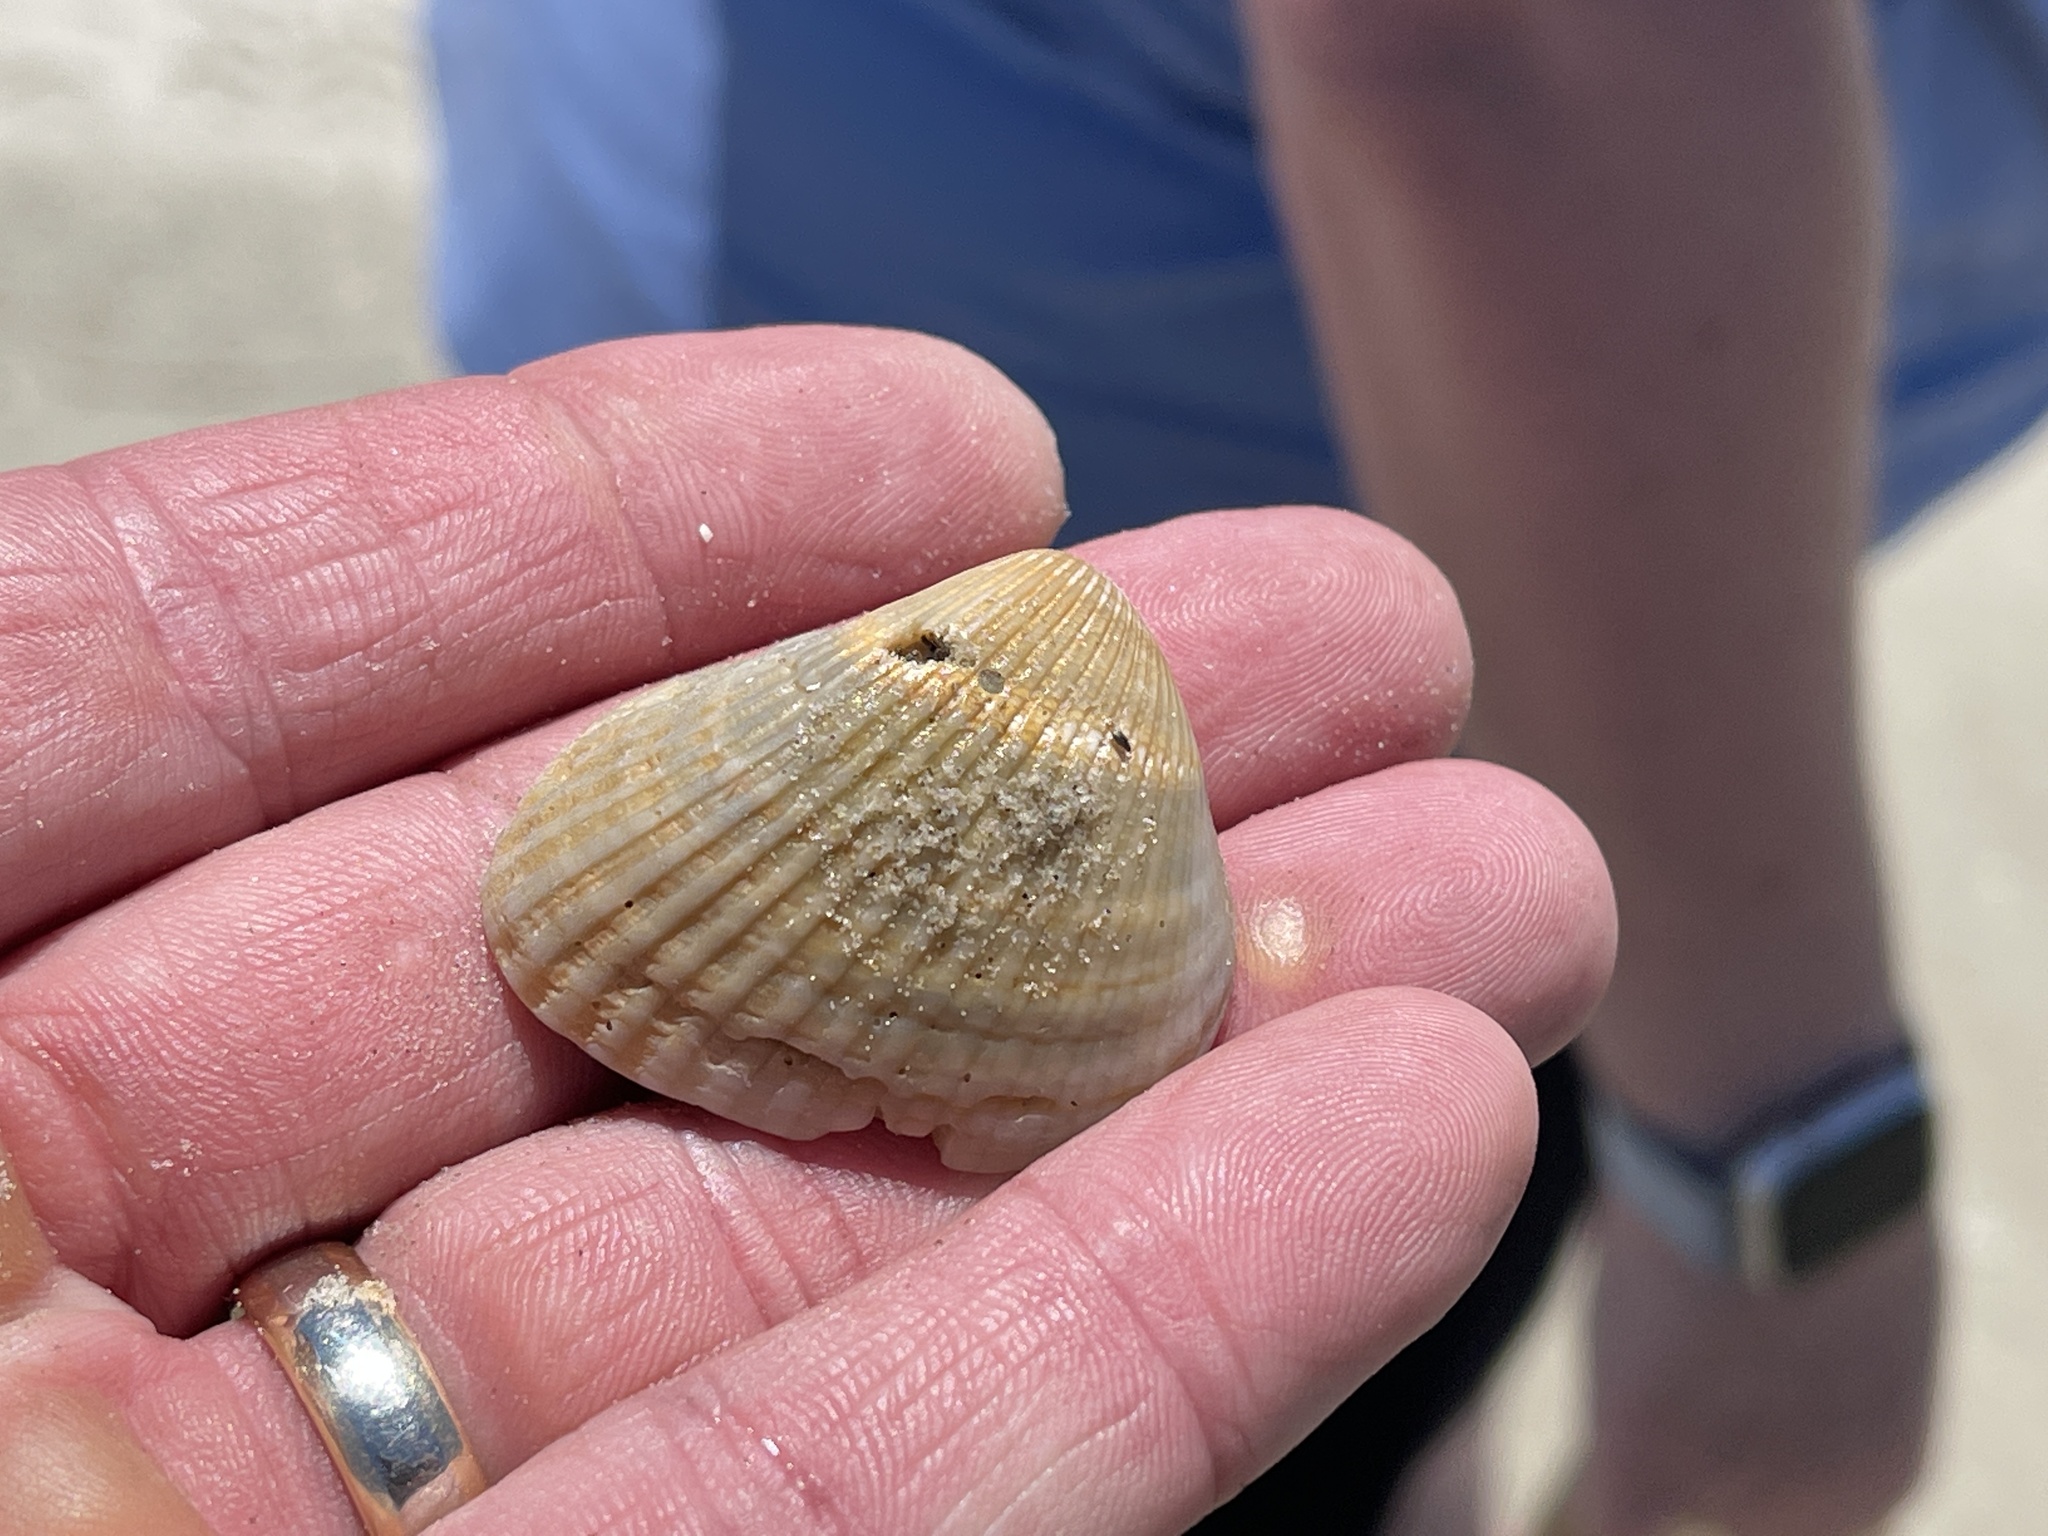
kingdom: Animalia
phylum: Mollusca
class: Bivalvia
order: Arcida
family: Noetiidae
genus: Noetia
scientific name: Noetia ponderosa
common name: Ponderous ark
